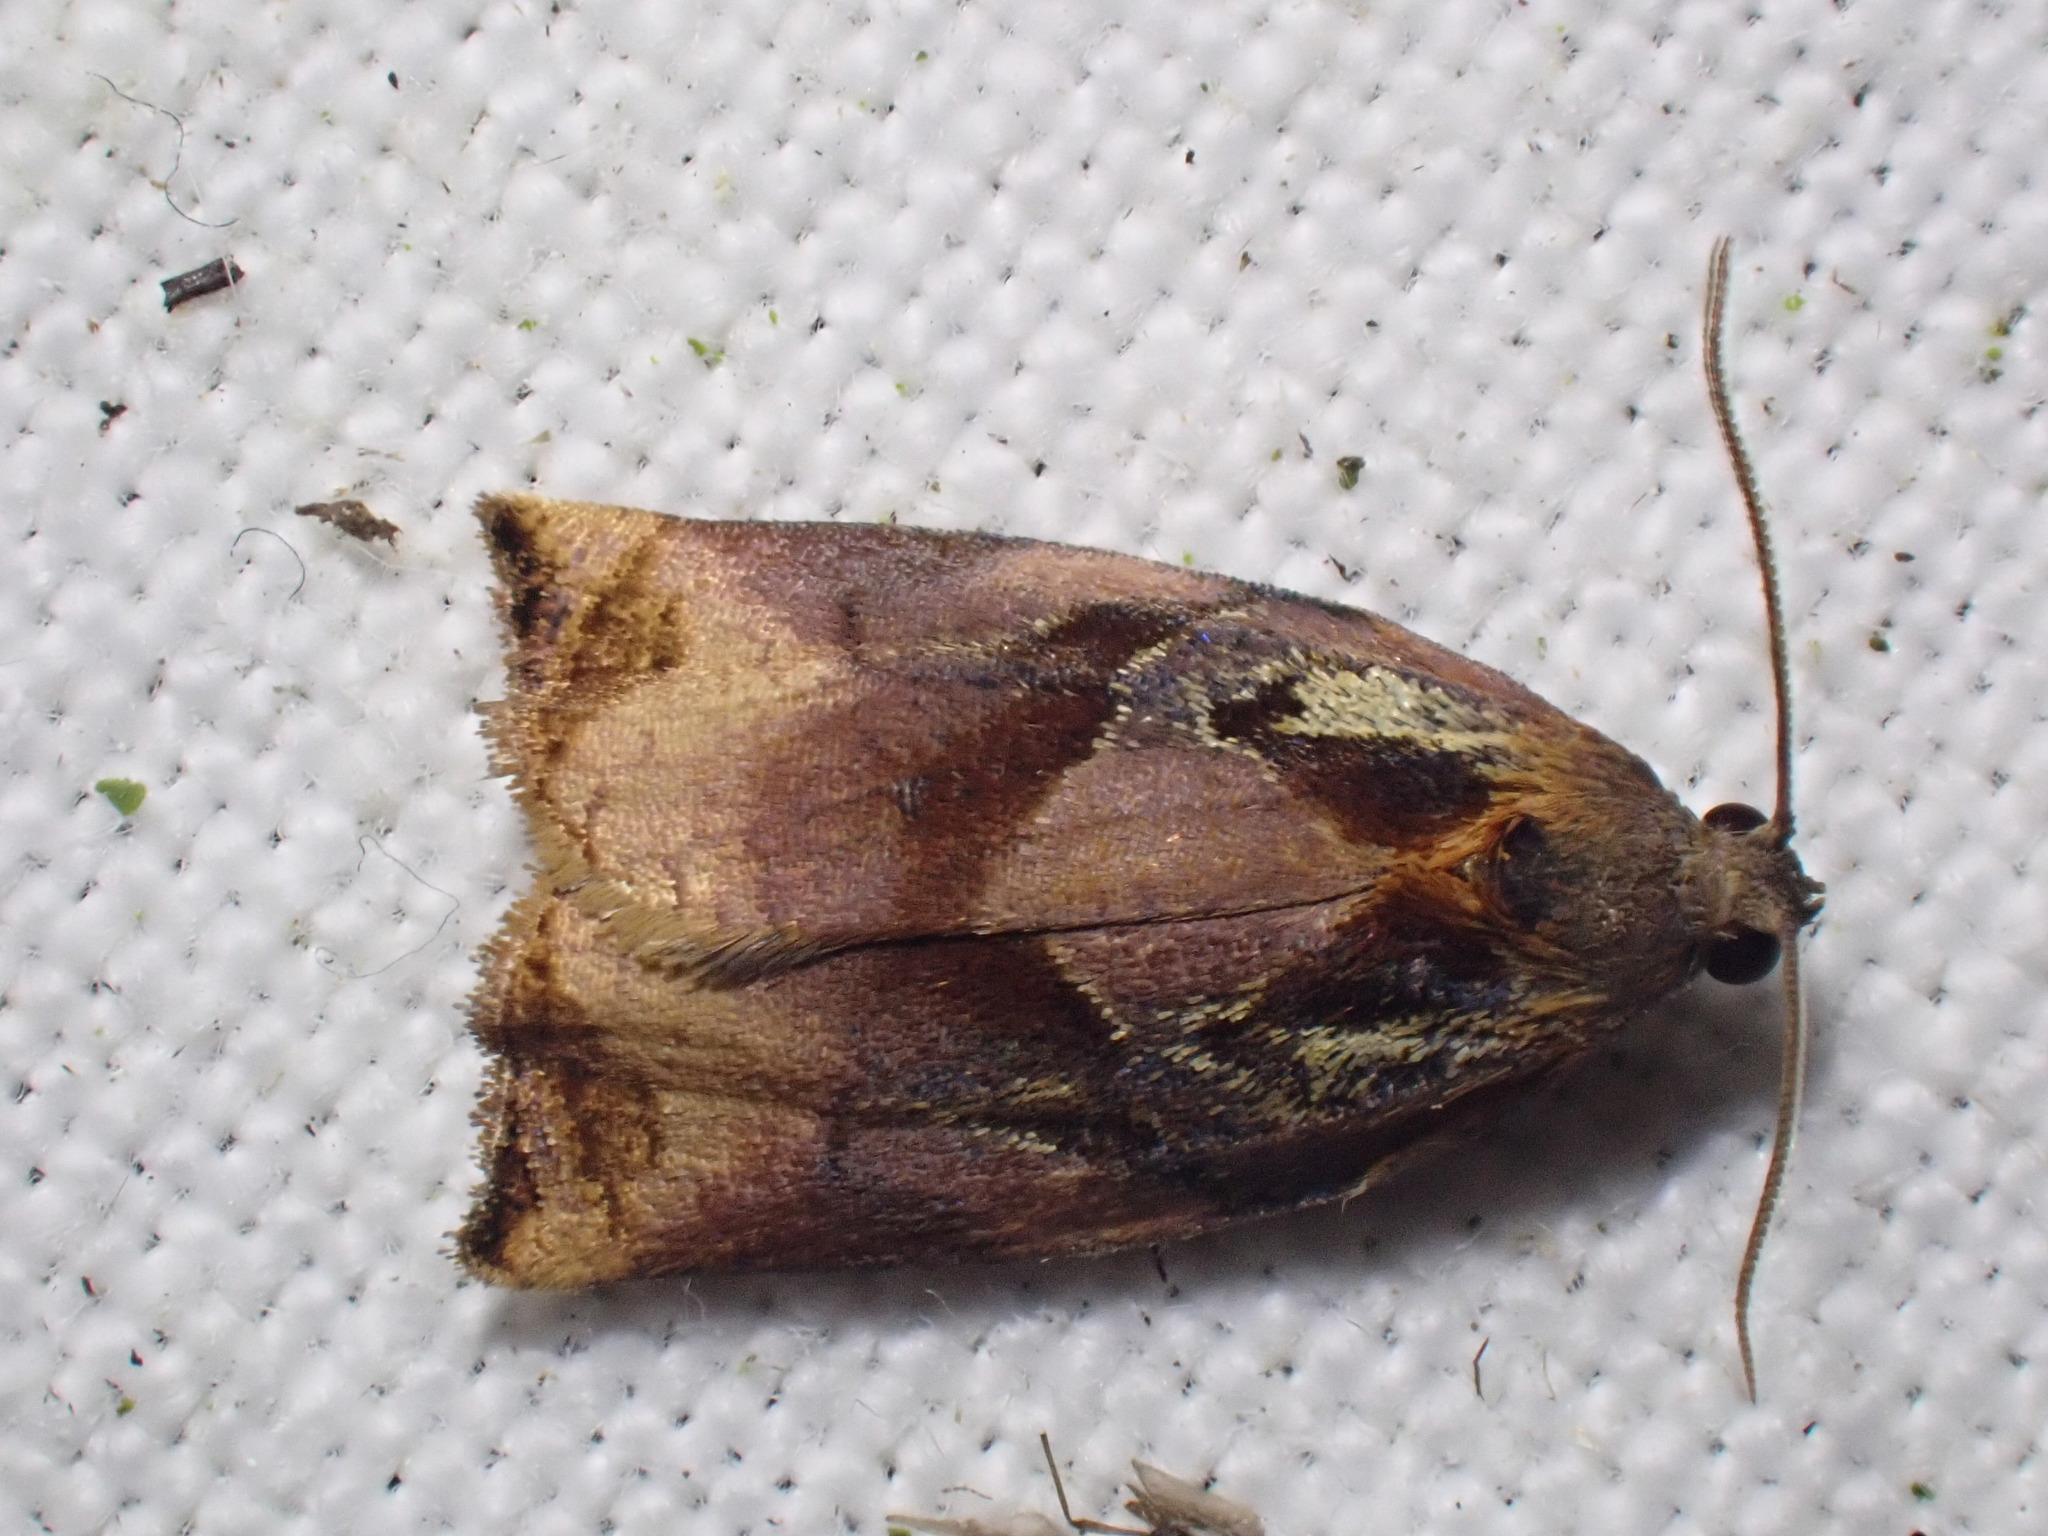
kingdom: Animalia
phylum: Arthropoda
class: Insecta
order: Lepidoptera
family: Tortricidae
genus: Archips
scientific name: Archips podana
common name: Large fruit-tree tortrix
